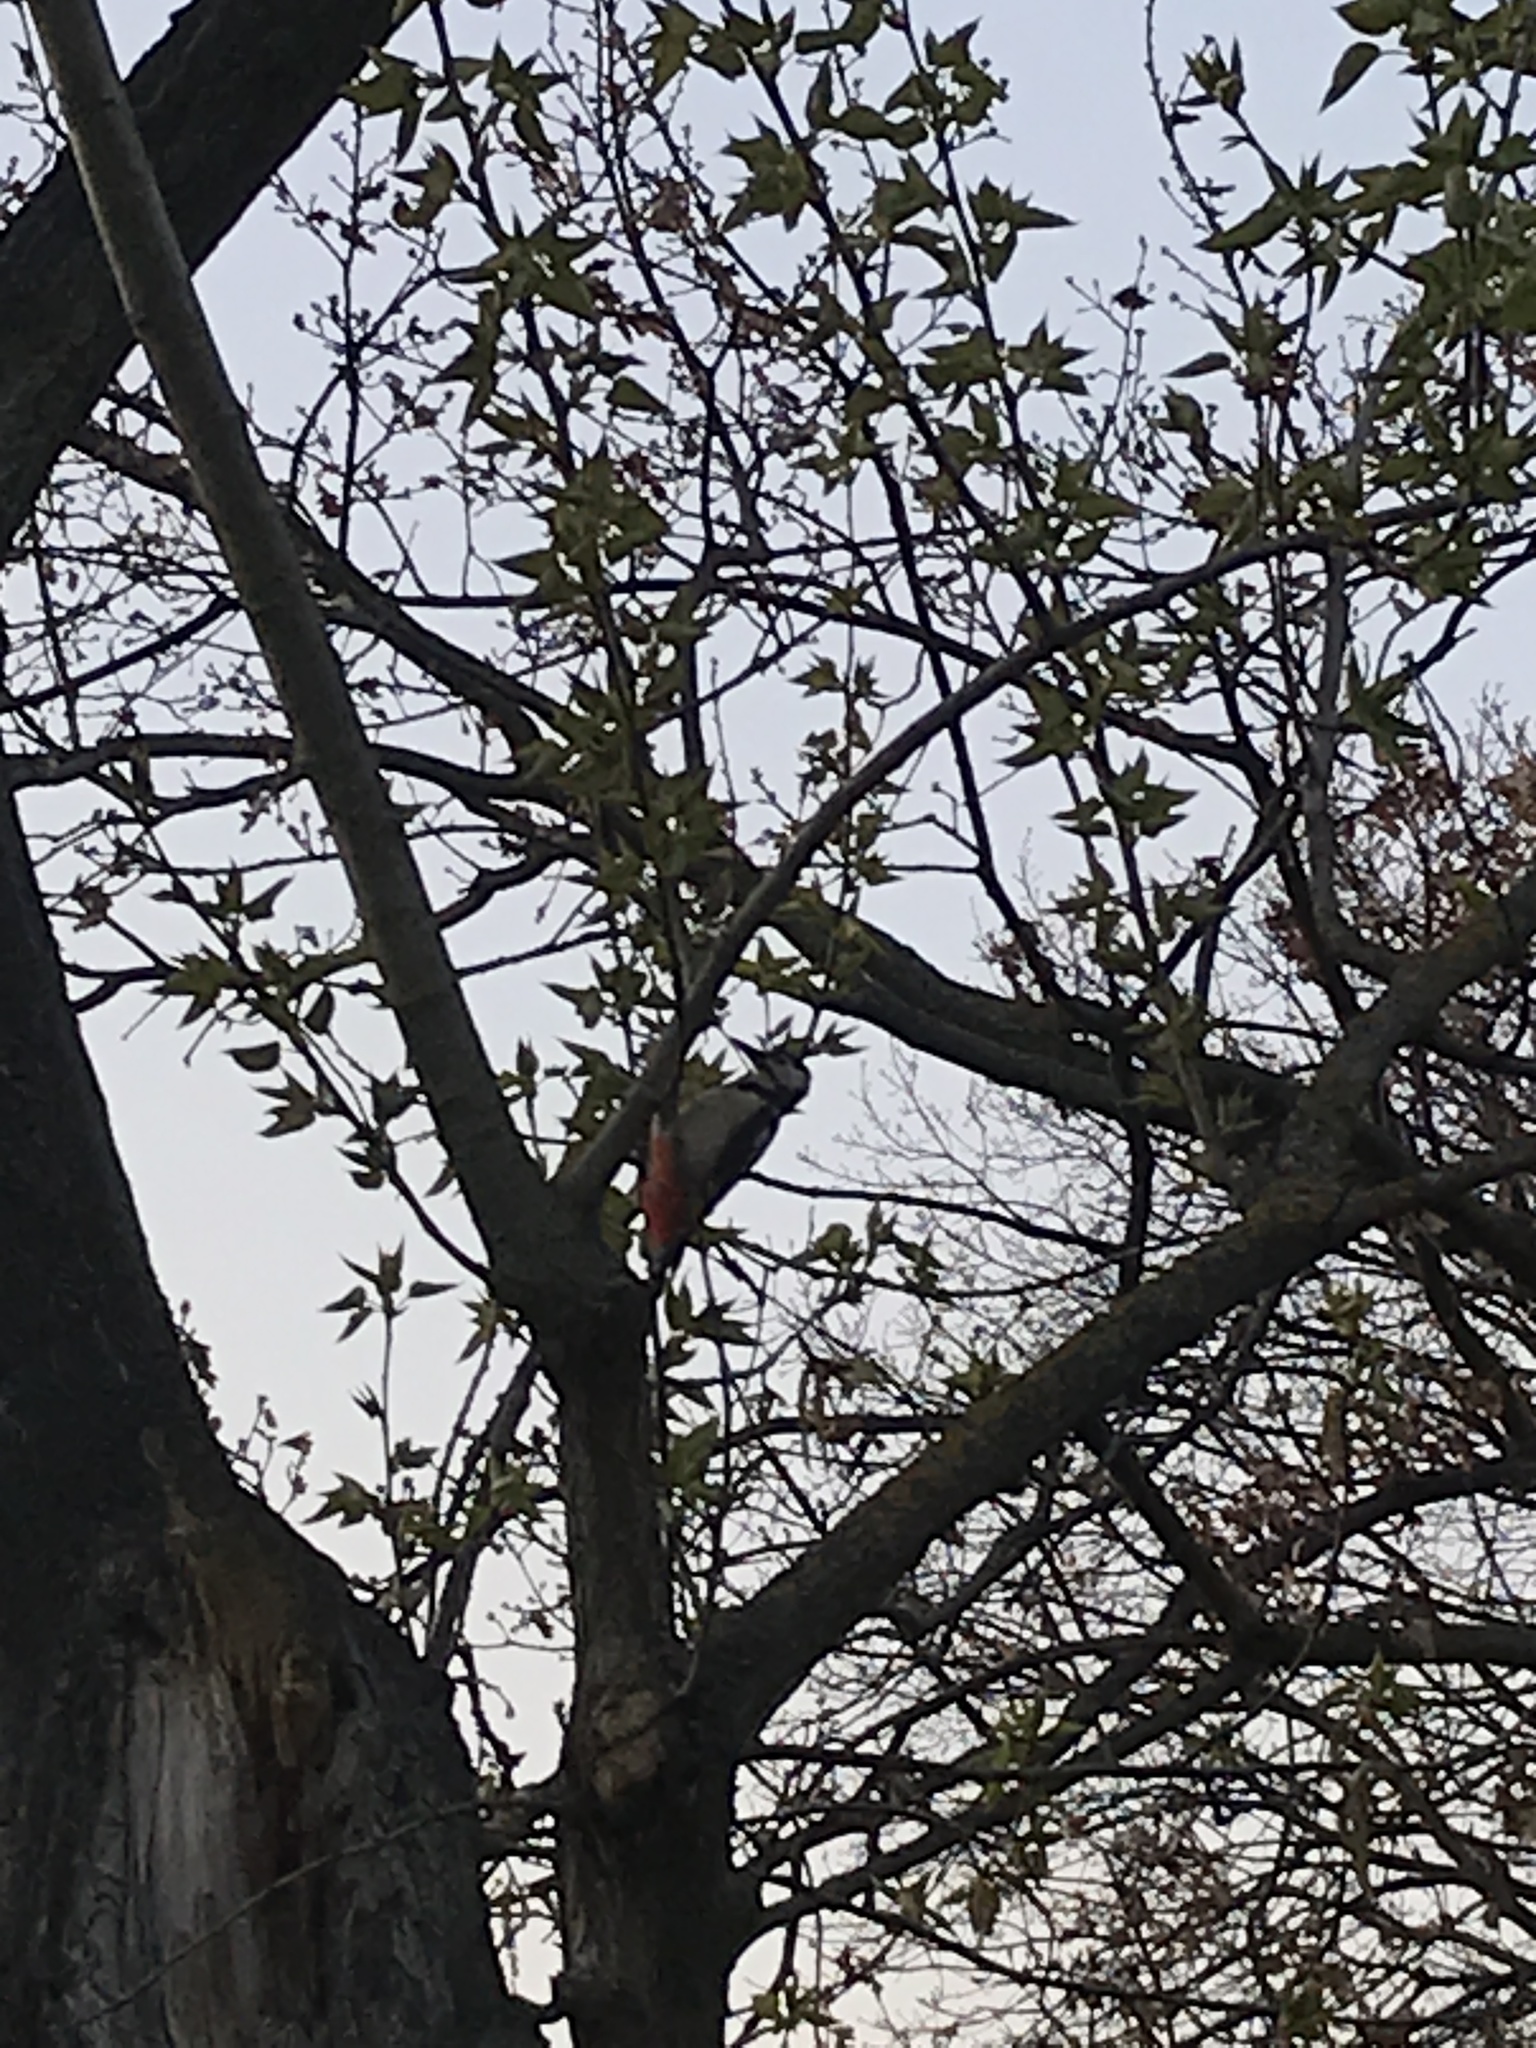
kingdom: Animalia
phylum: Chordata
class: Aves
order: Piciformes
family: Picidae
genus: Dendrocopos
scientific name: Dendrocopos major
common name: Great spotted woodpecker
